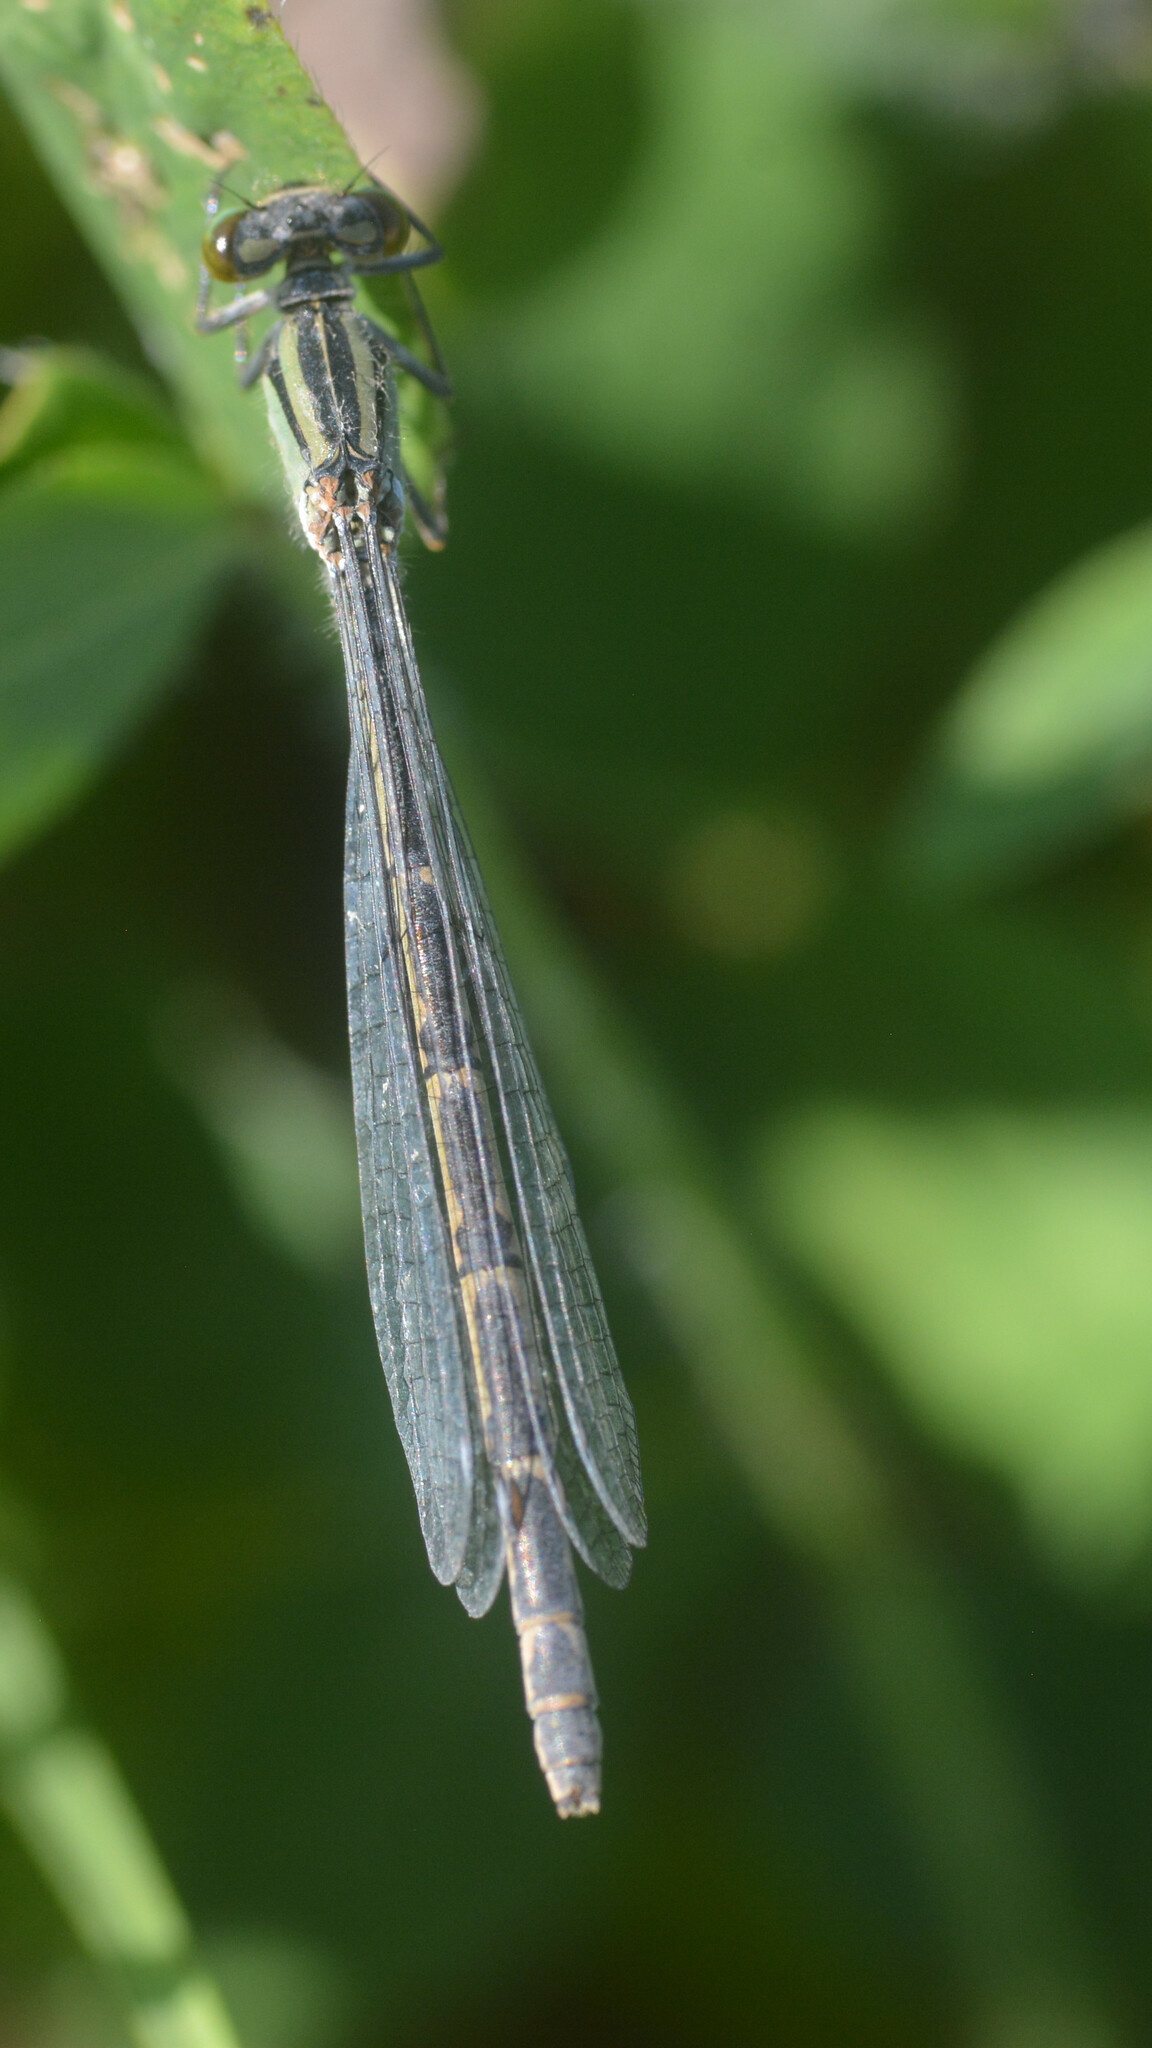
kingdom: Animalia
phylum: Arthropoda
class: Insecta
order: Odonata
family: Coenagrionidae
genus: Enallagma
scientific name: Enallagma cyathigerum
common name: Common blue damselfly
